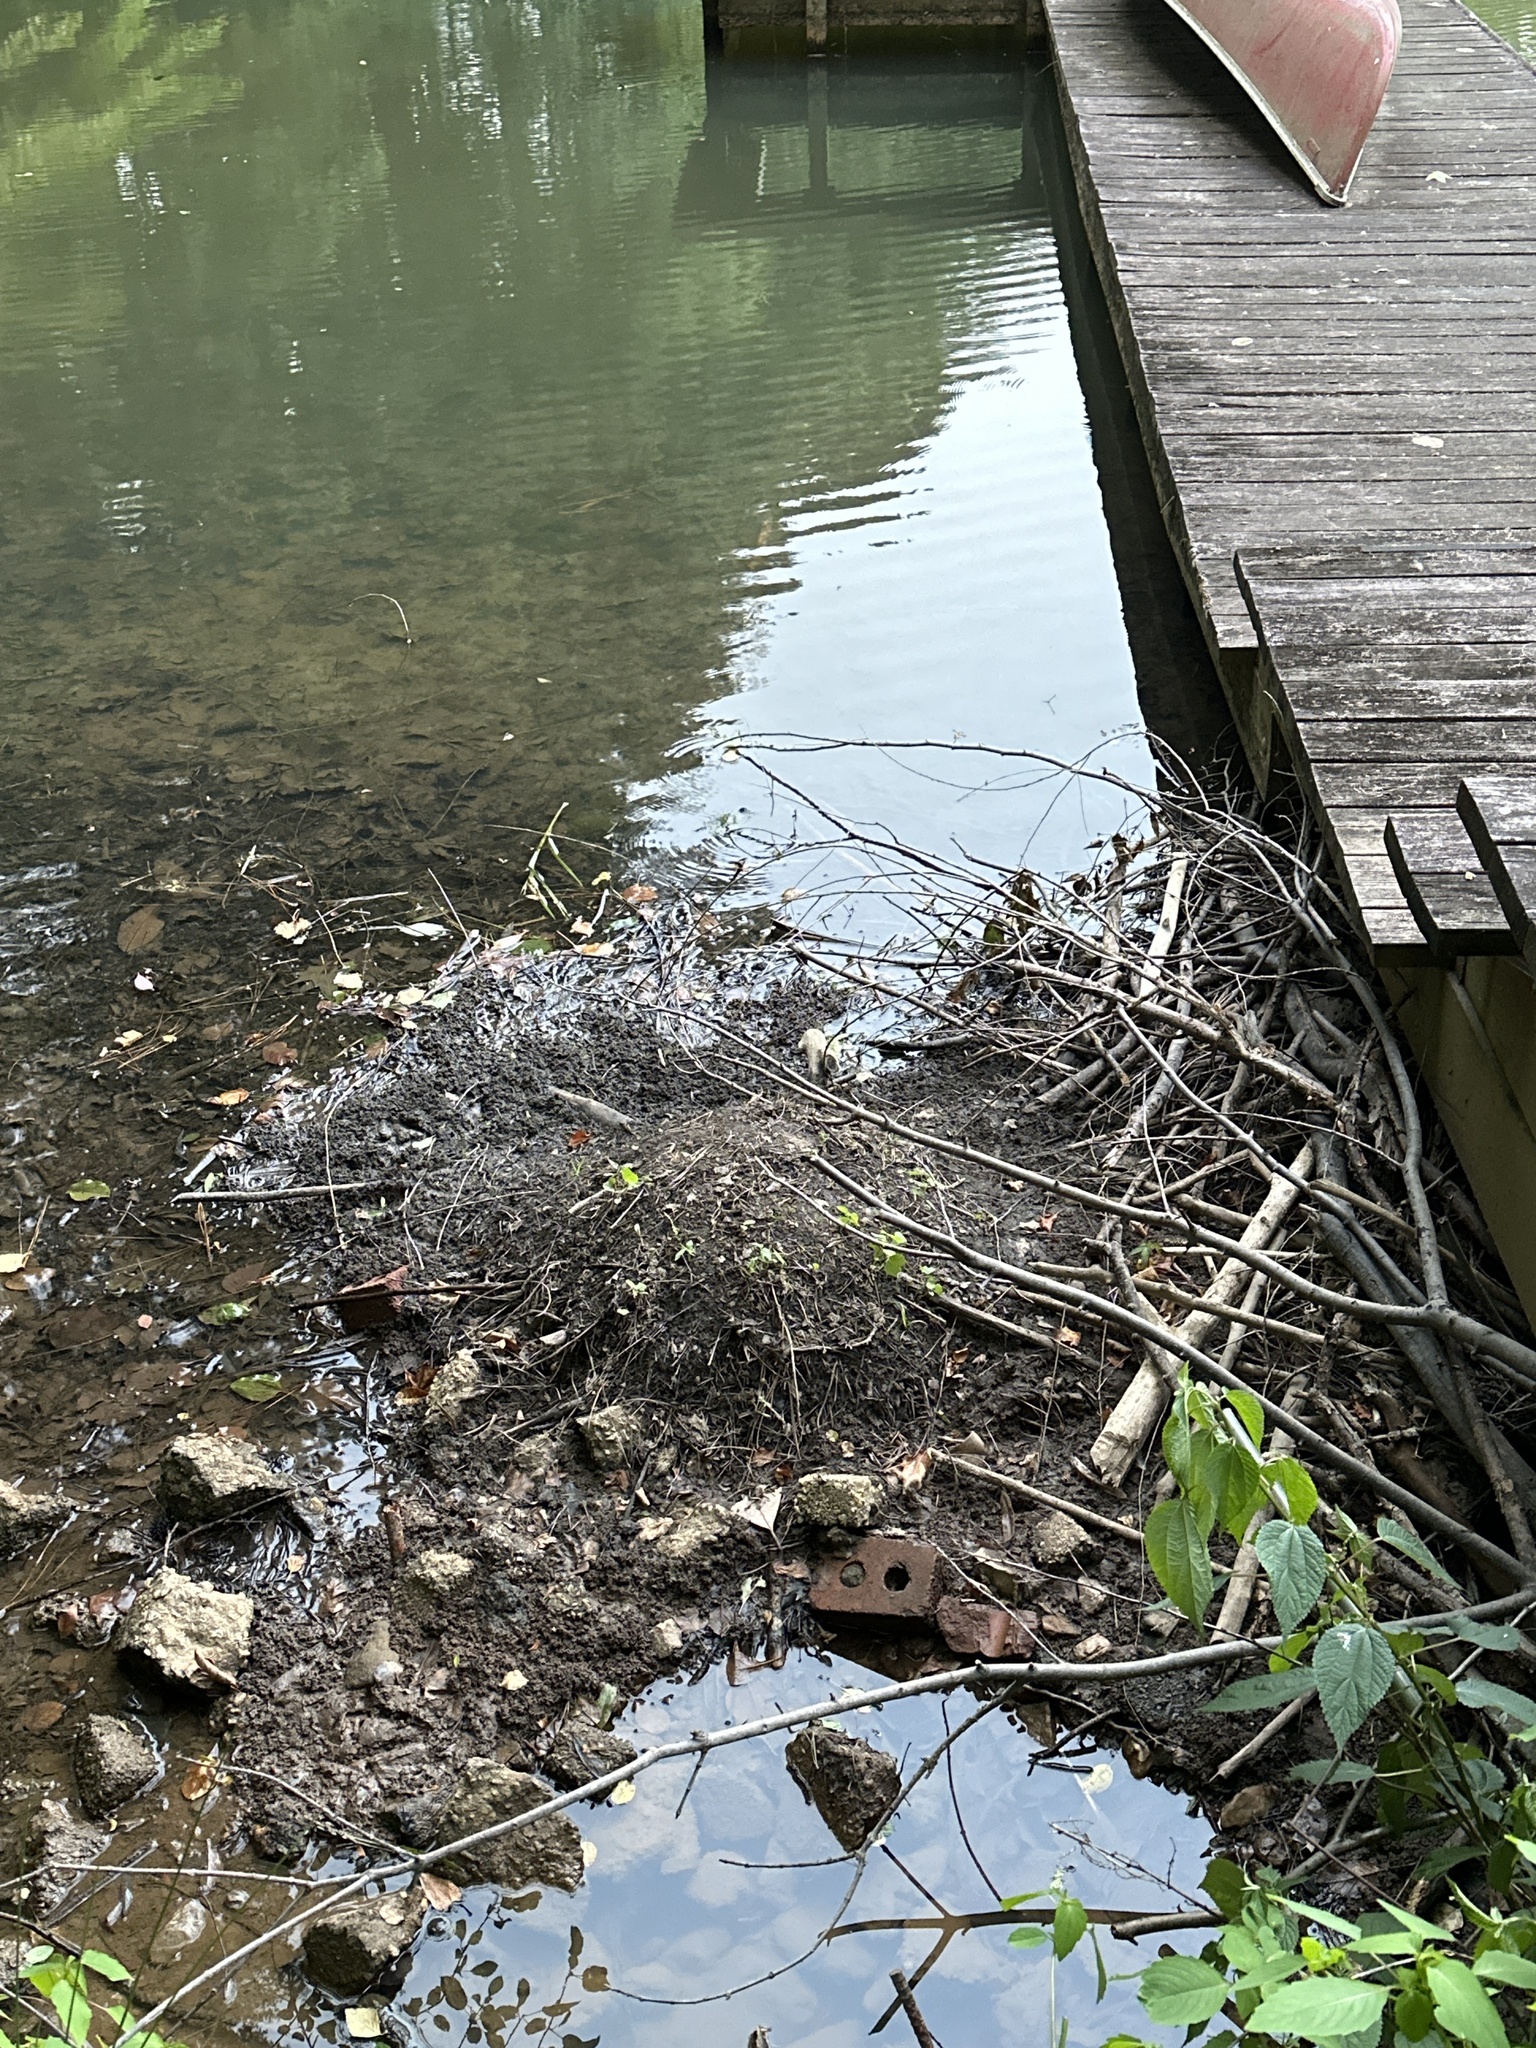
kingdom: Animalia
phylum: Chordata
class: Mammalia
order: Rodentia
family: Castoridae
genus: Castor
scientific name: Castor canadensis
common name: American beaver
